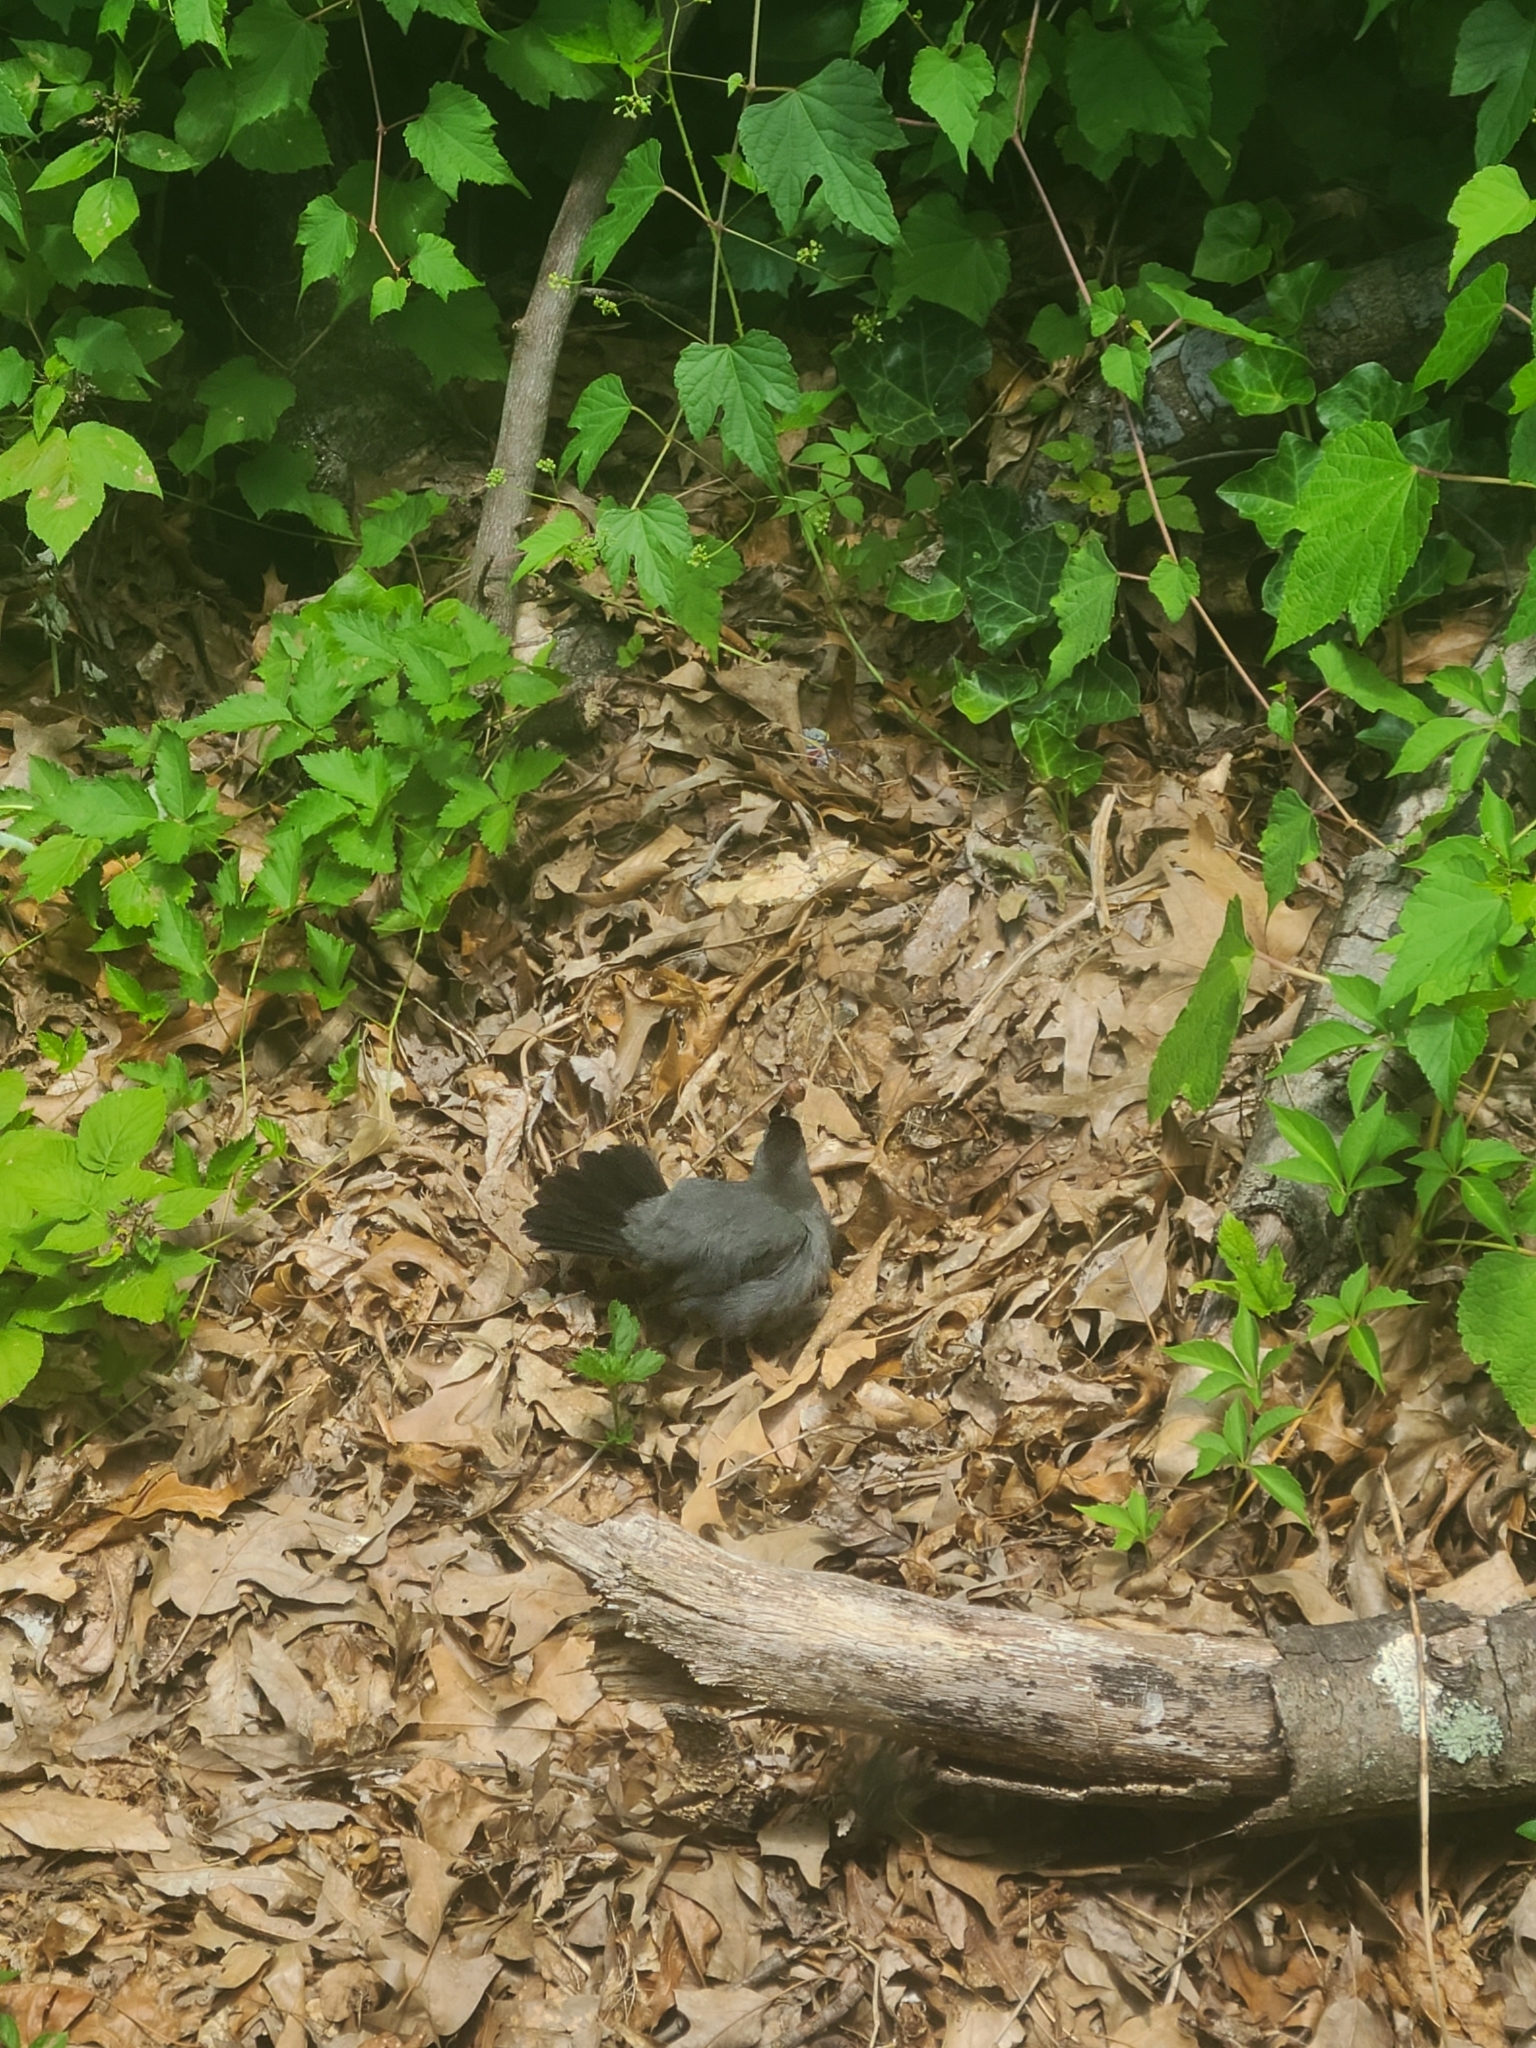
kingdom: Animalia
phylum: Chordata
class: Aves
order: Passeriformes
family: Mimidae
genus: Dumetella
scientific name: Dumetella carolinensis
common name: Gray catbird
